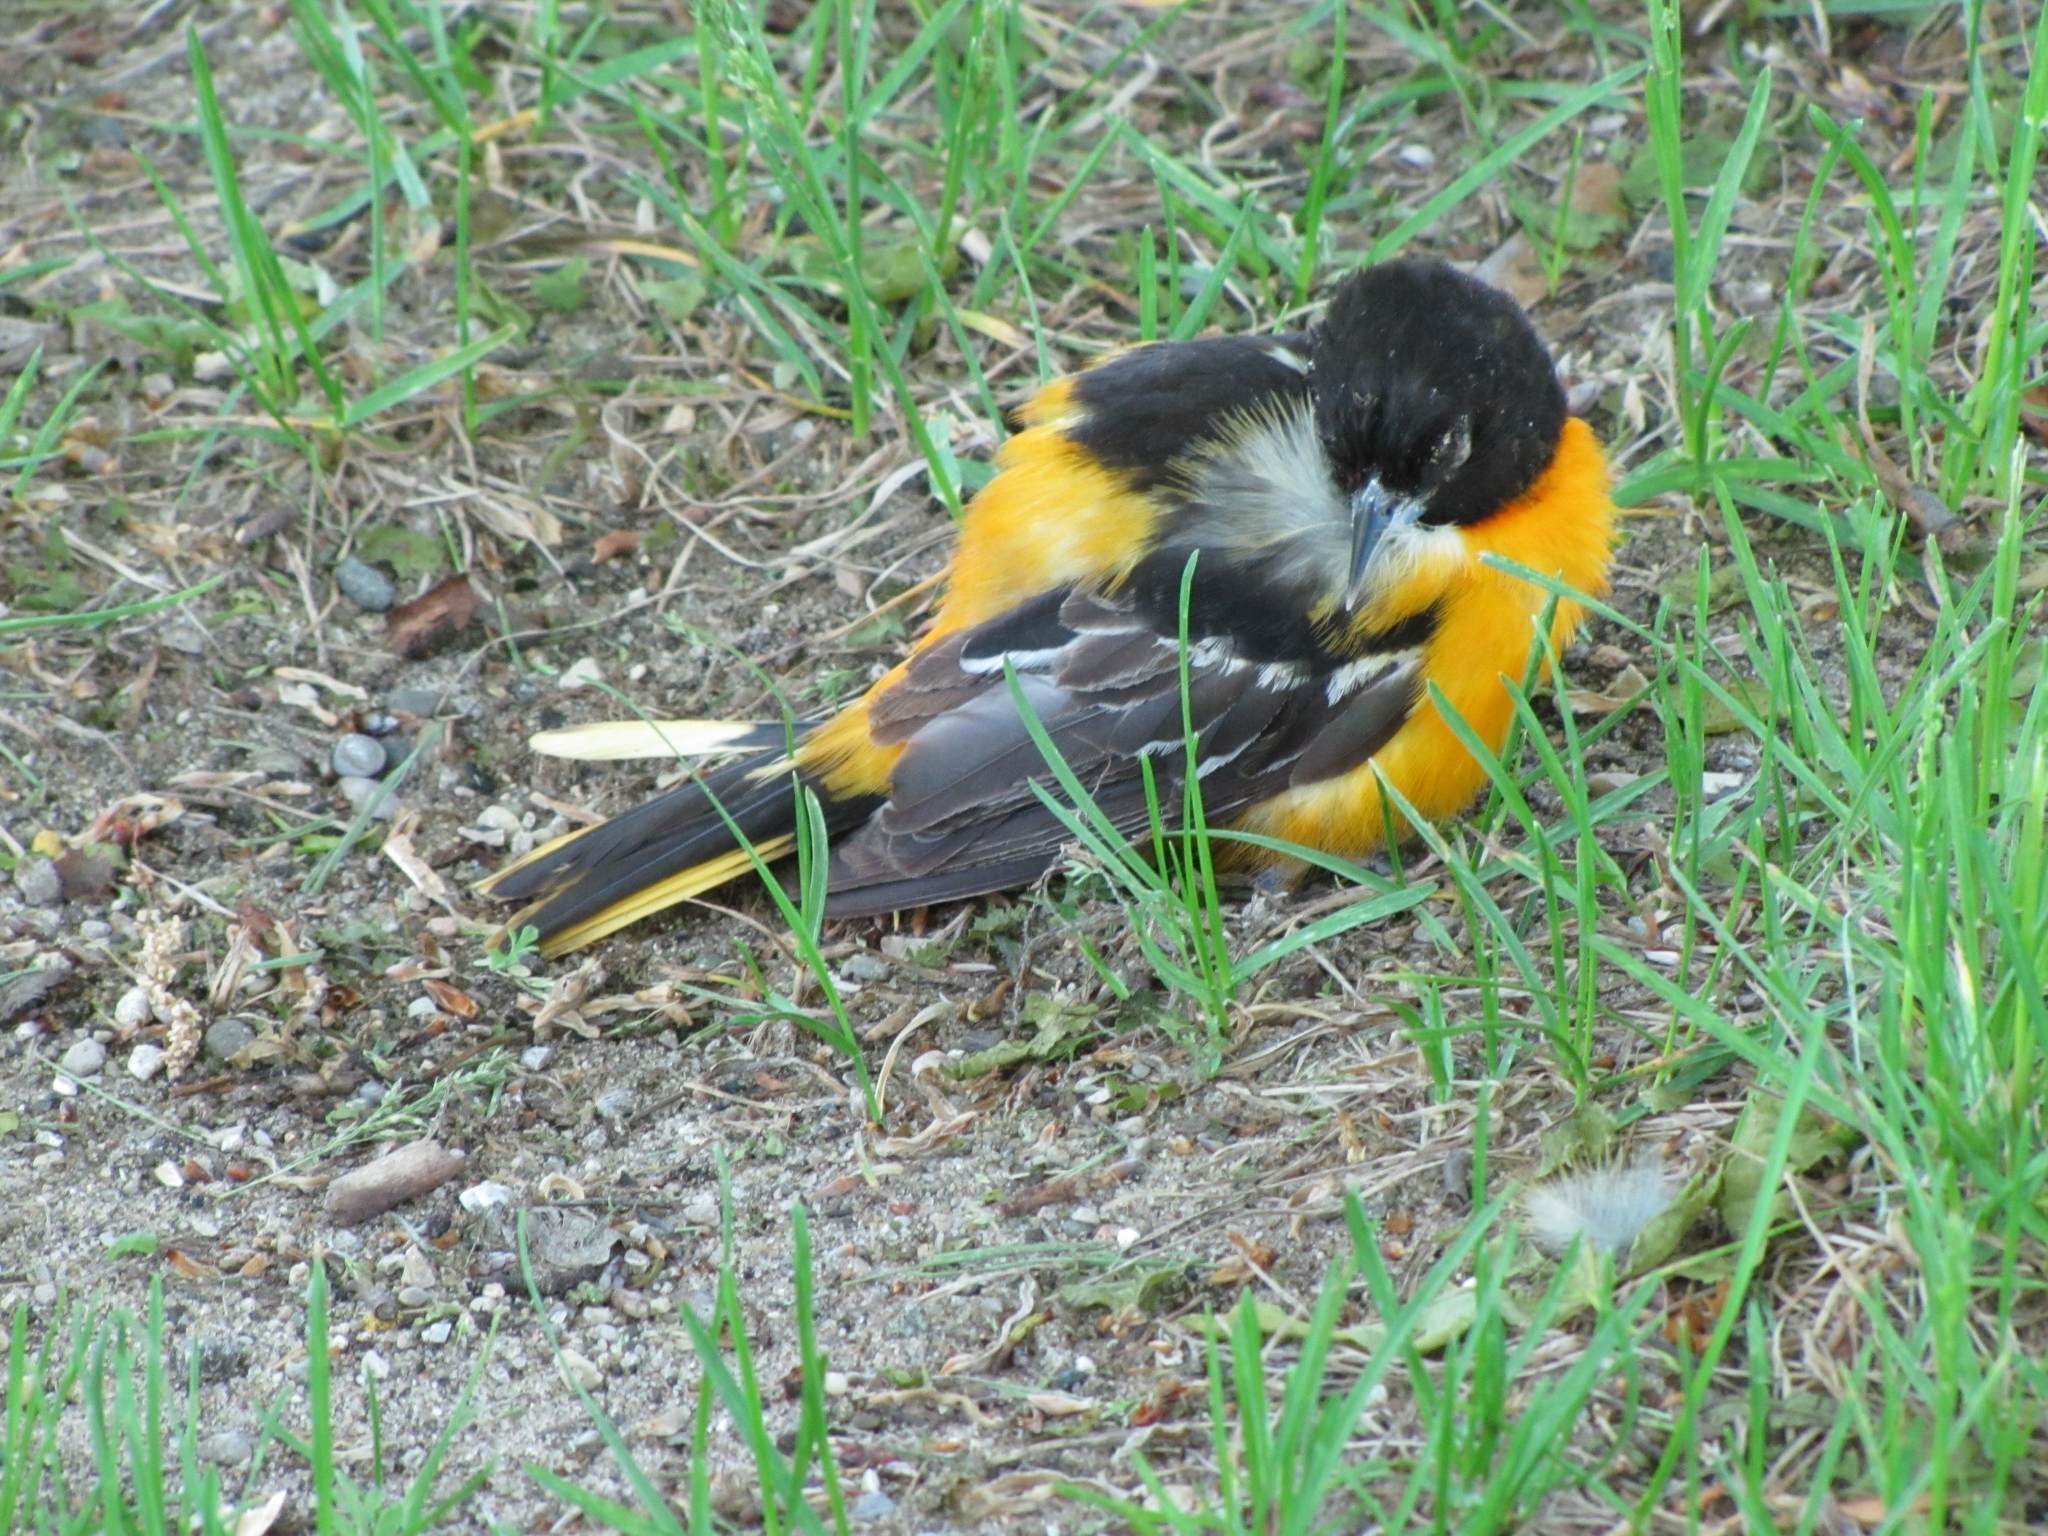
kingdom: Animalia
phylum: Chordata
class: Aves
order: Passeriformes
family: Icteridae
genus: Icterus
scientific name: Icterus galbula
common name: Baltimore oriole
